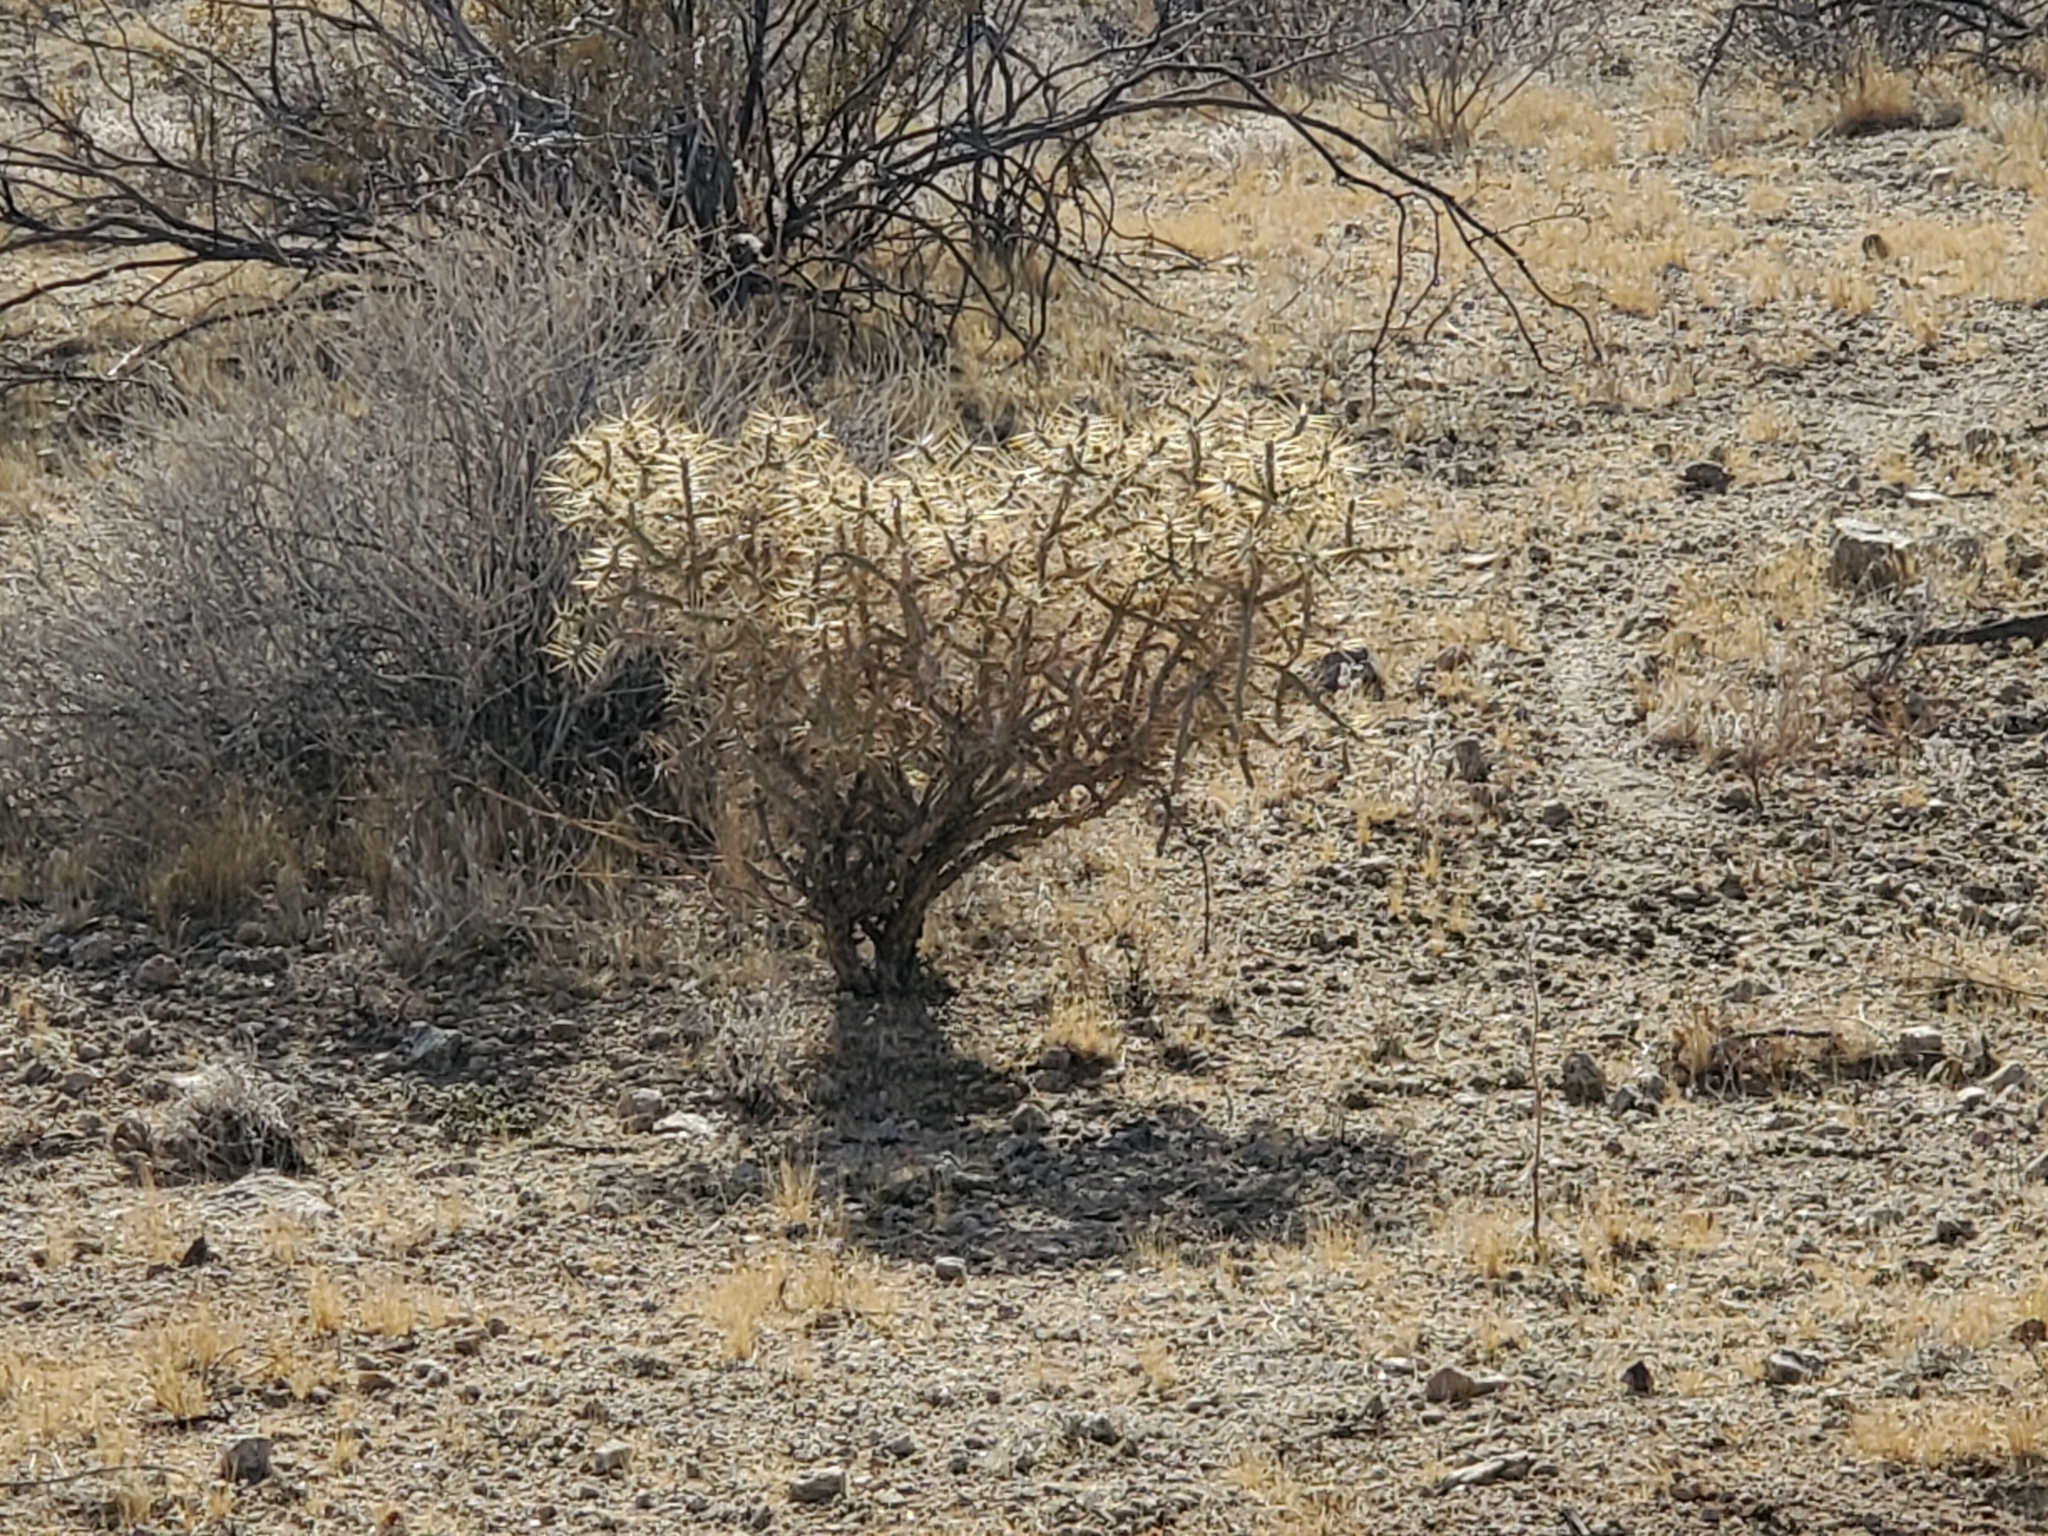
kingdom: Plantae
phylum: Tracheophyta
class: Magnoliopsida
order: Caryophyllales
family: Cactaceae
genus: Cylindropuntia
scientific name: Cylindropuntia ramosissima
